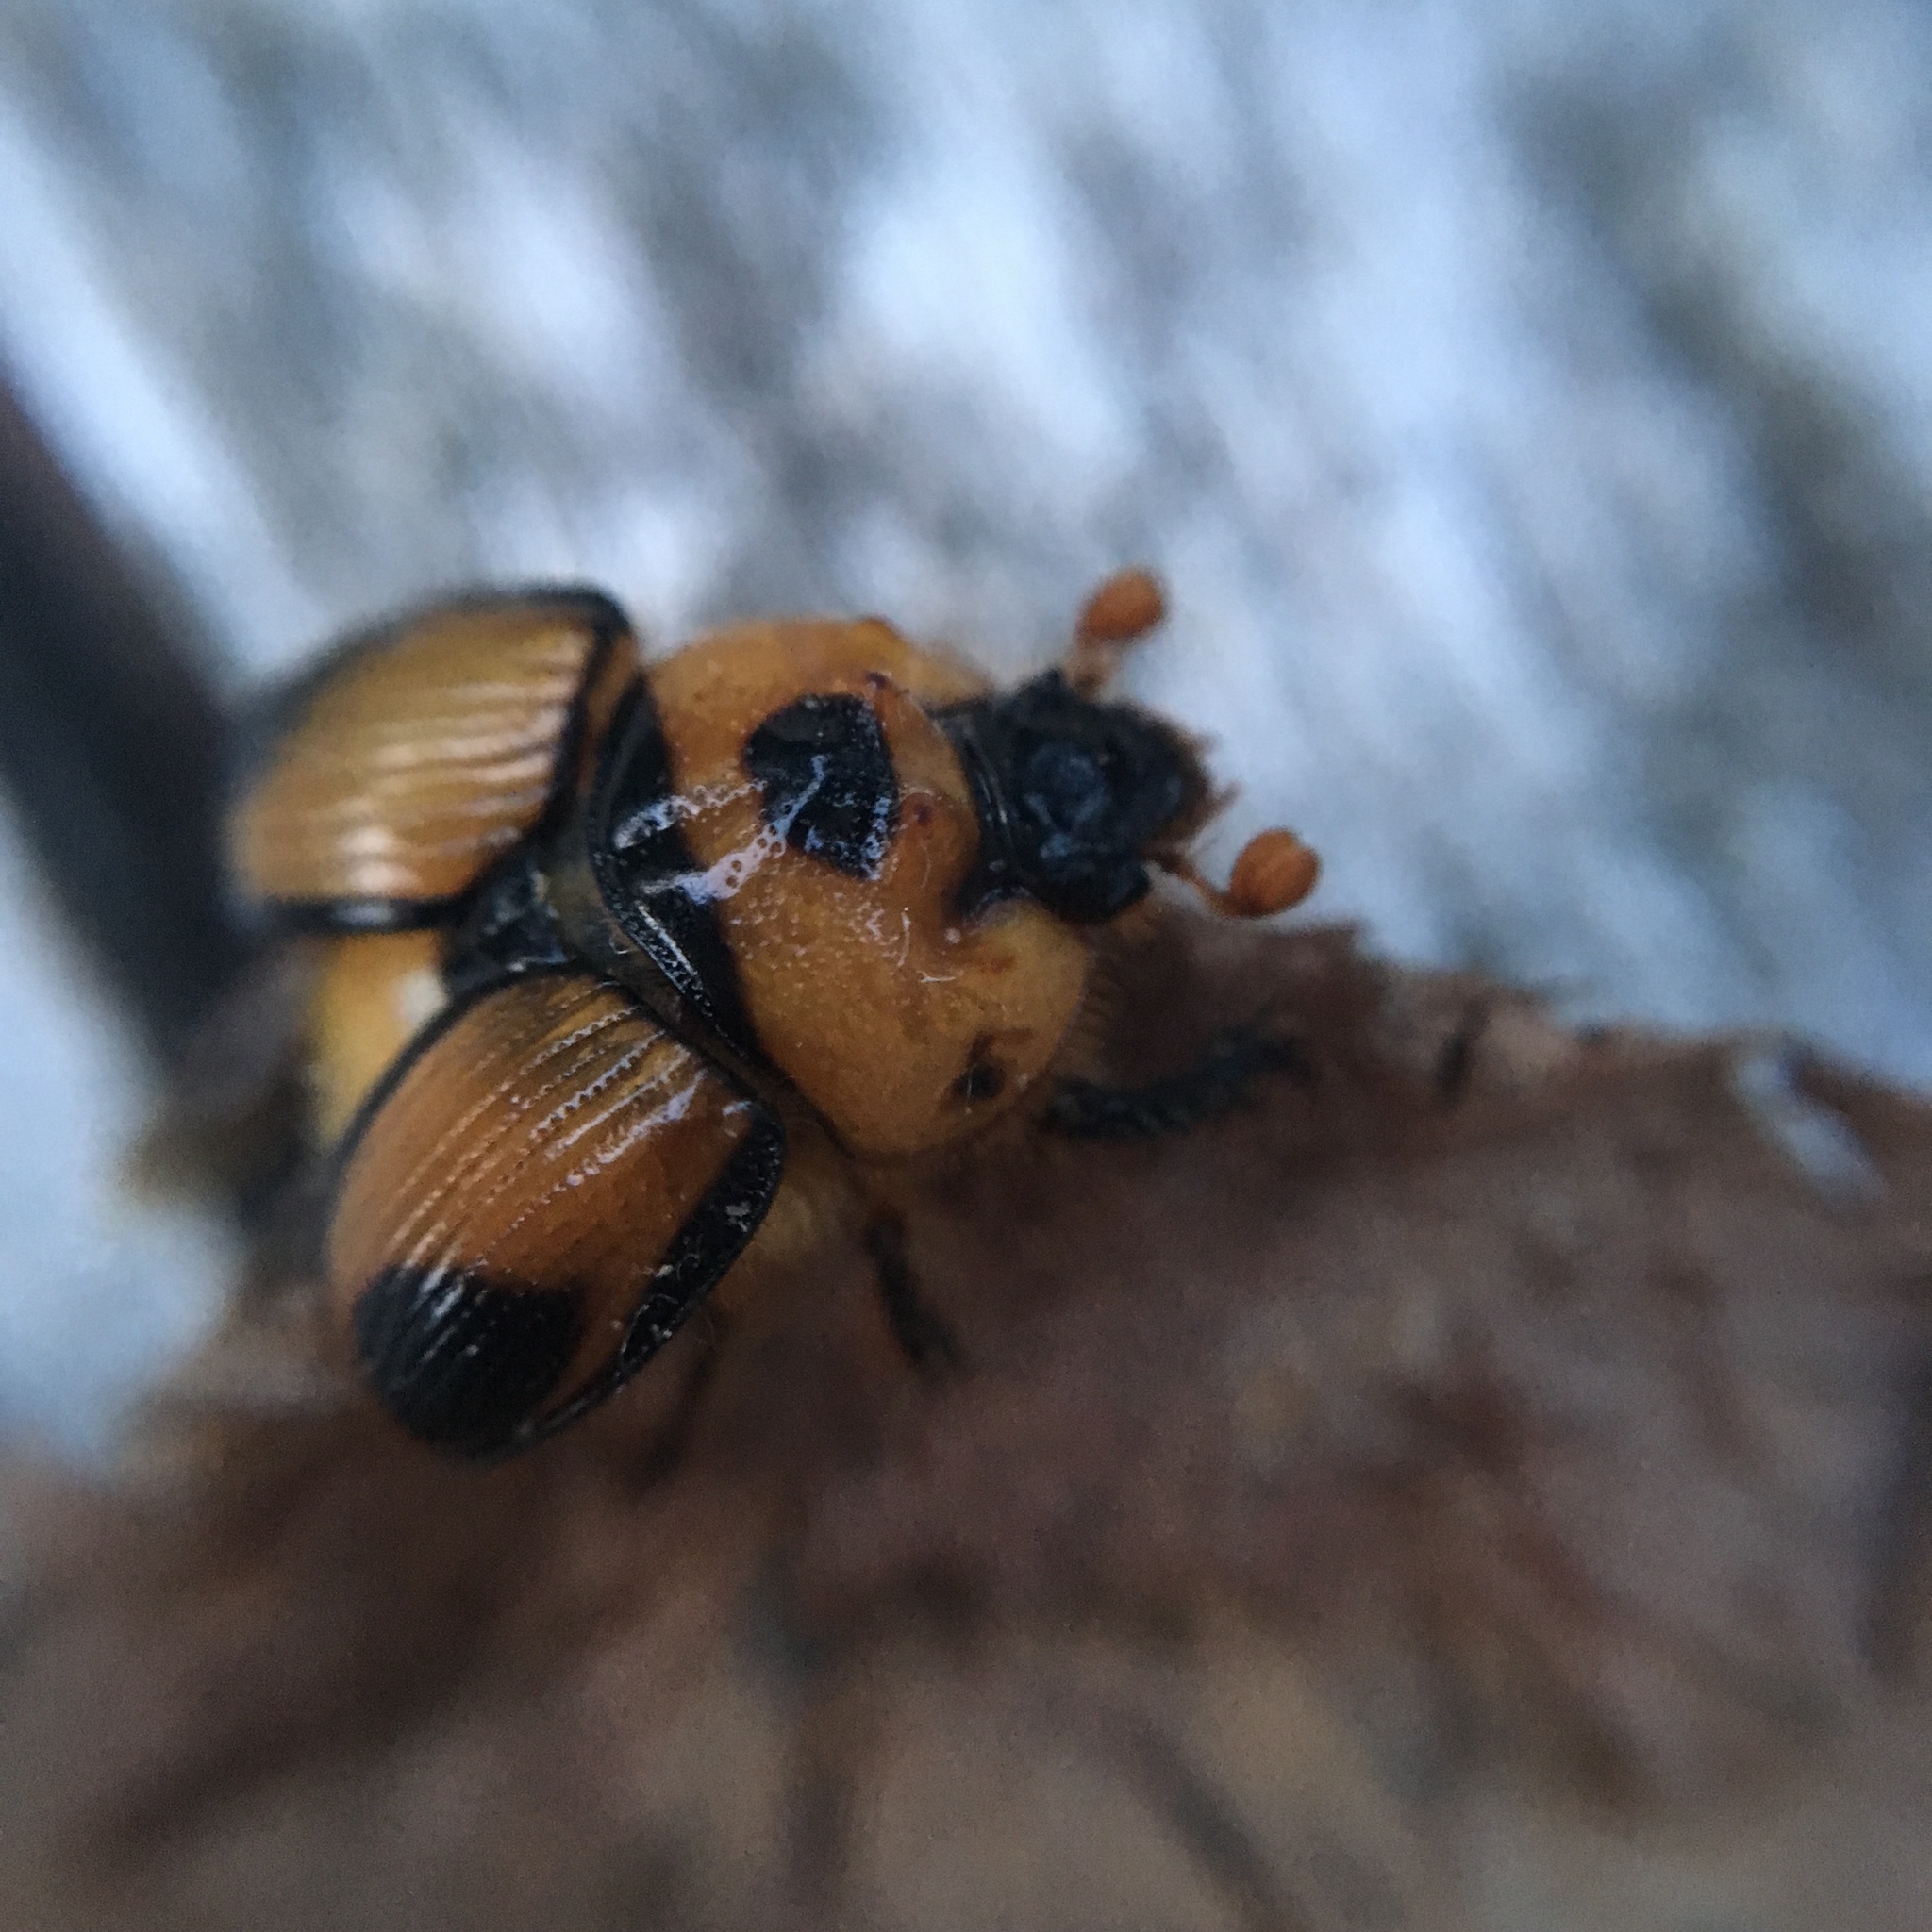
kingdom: Animalia
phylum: Arthropoda
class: Insecta
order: Coleoptera
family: Geotrupidae
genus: Bolbocerosoma
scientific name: Bolbocerosoma tumefactum
